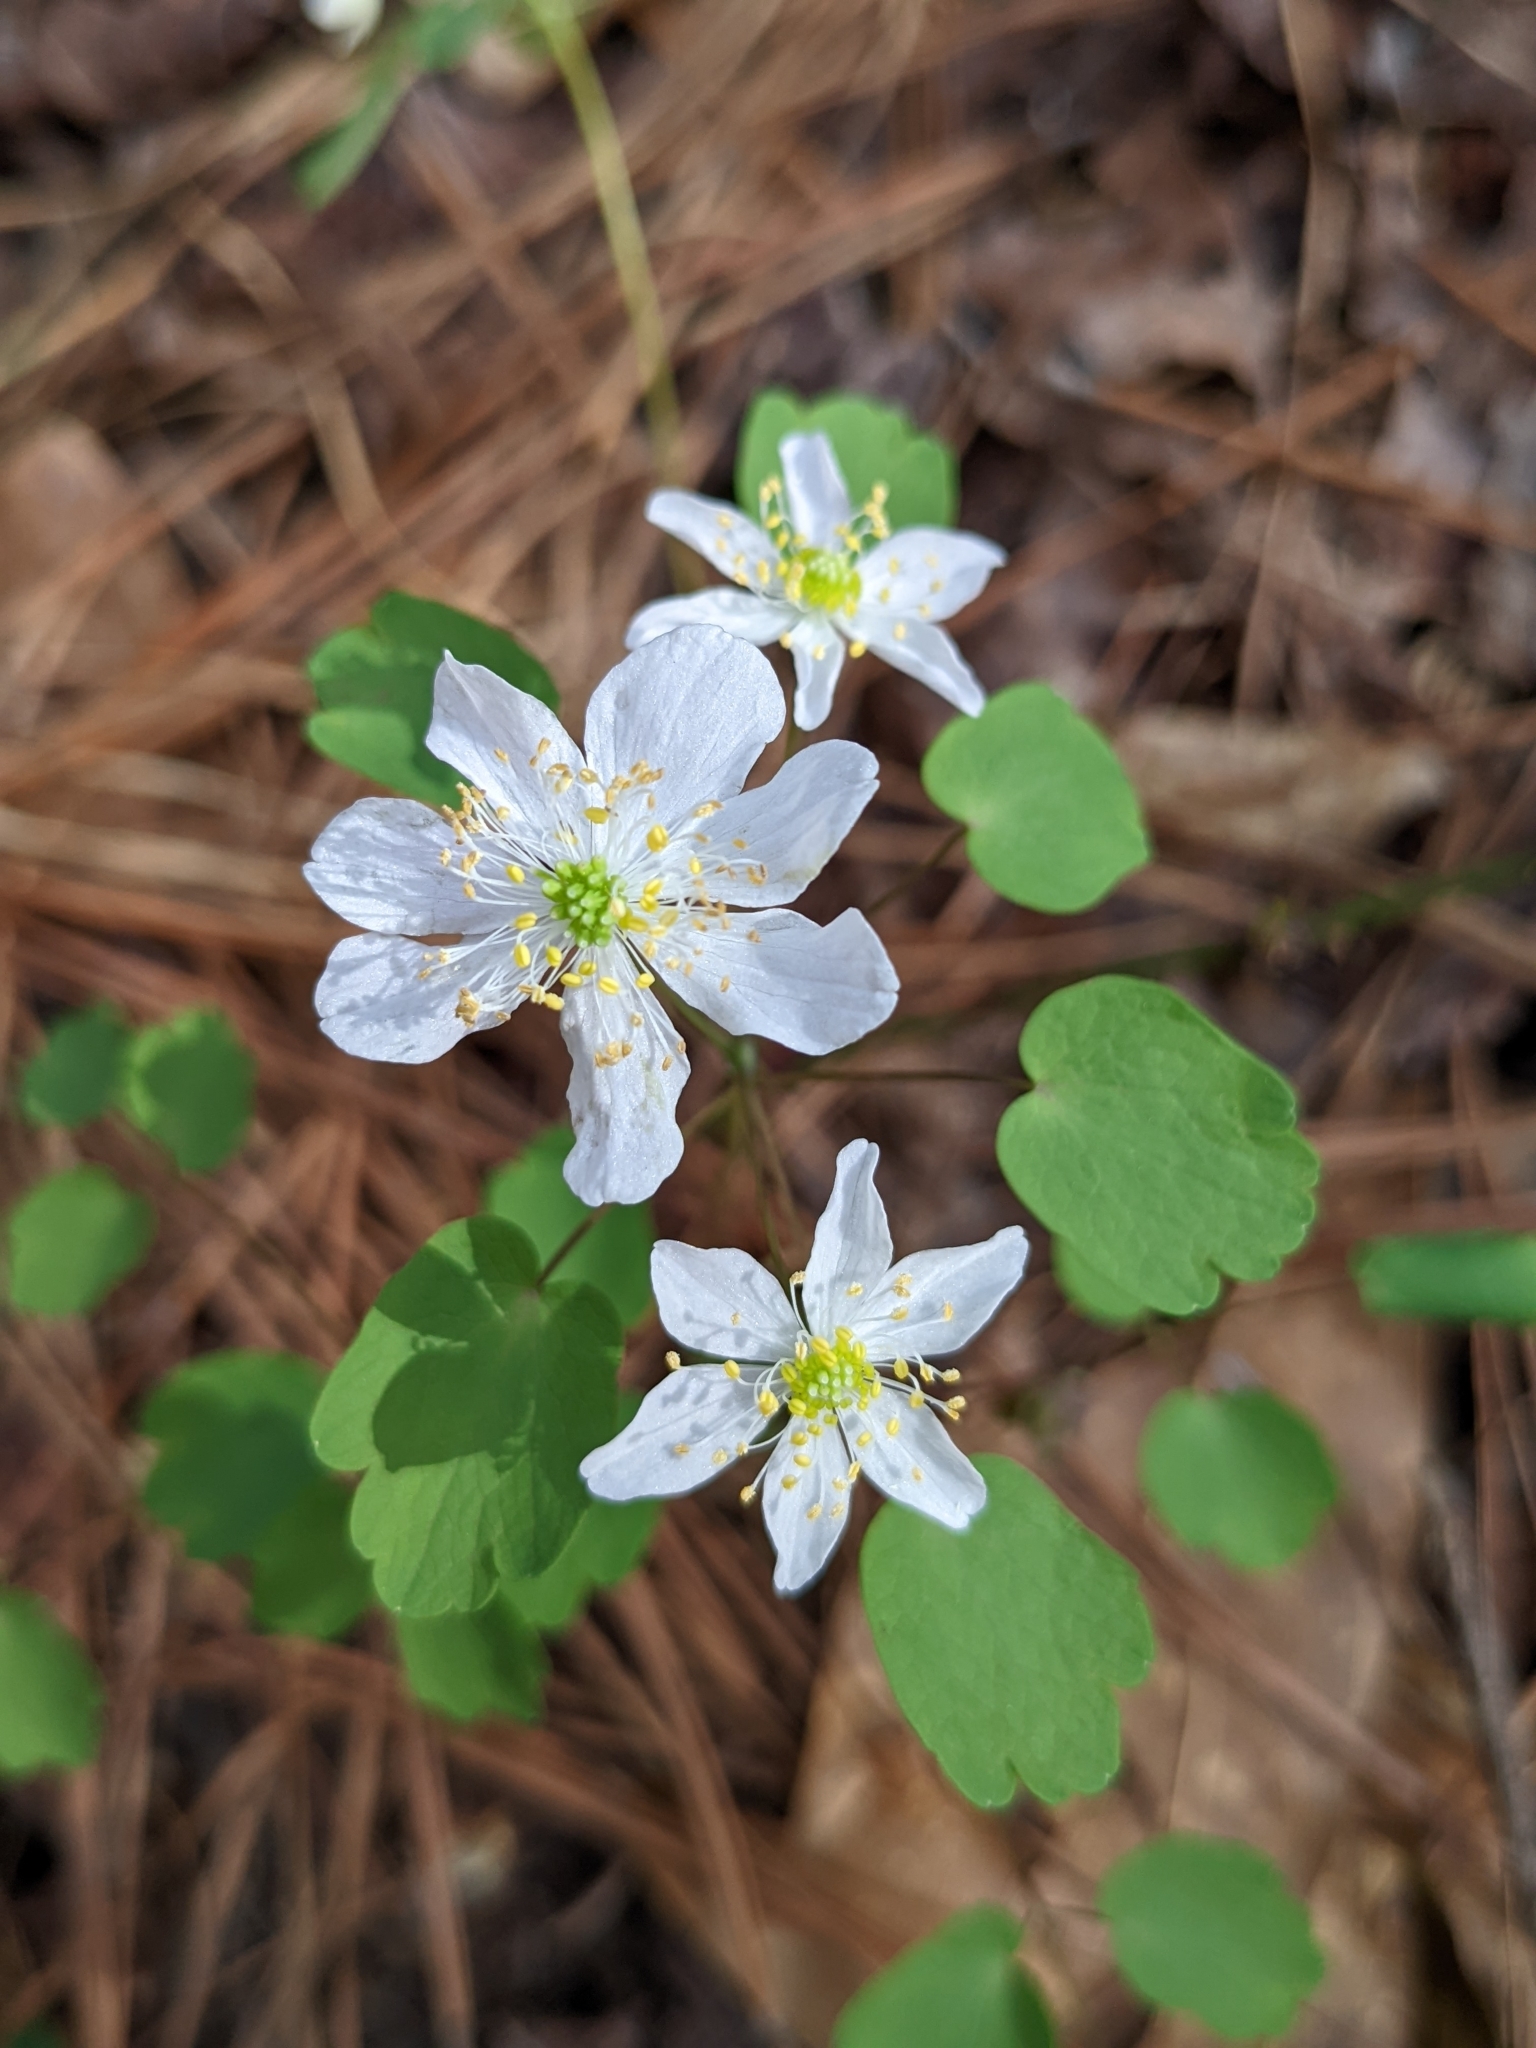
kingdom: Plantae
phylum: Tracheophyta
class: Magnoliopsida
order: Ranunculales
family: Ranunculaceae
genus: Thalictrum
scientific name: Thalictrum thalictroides
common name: Rue-anemone
